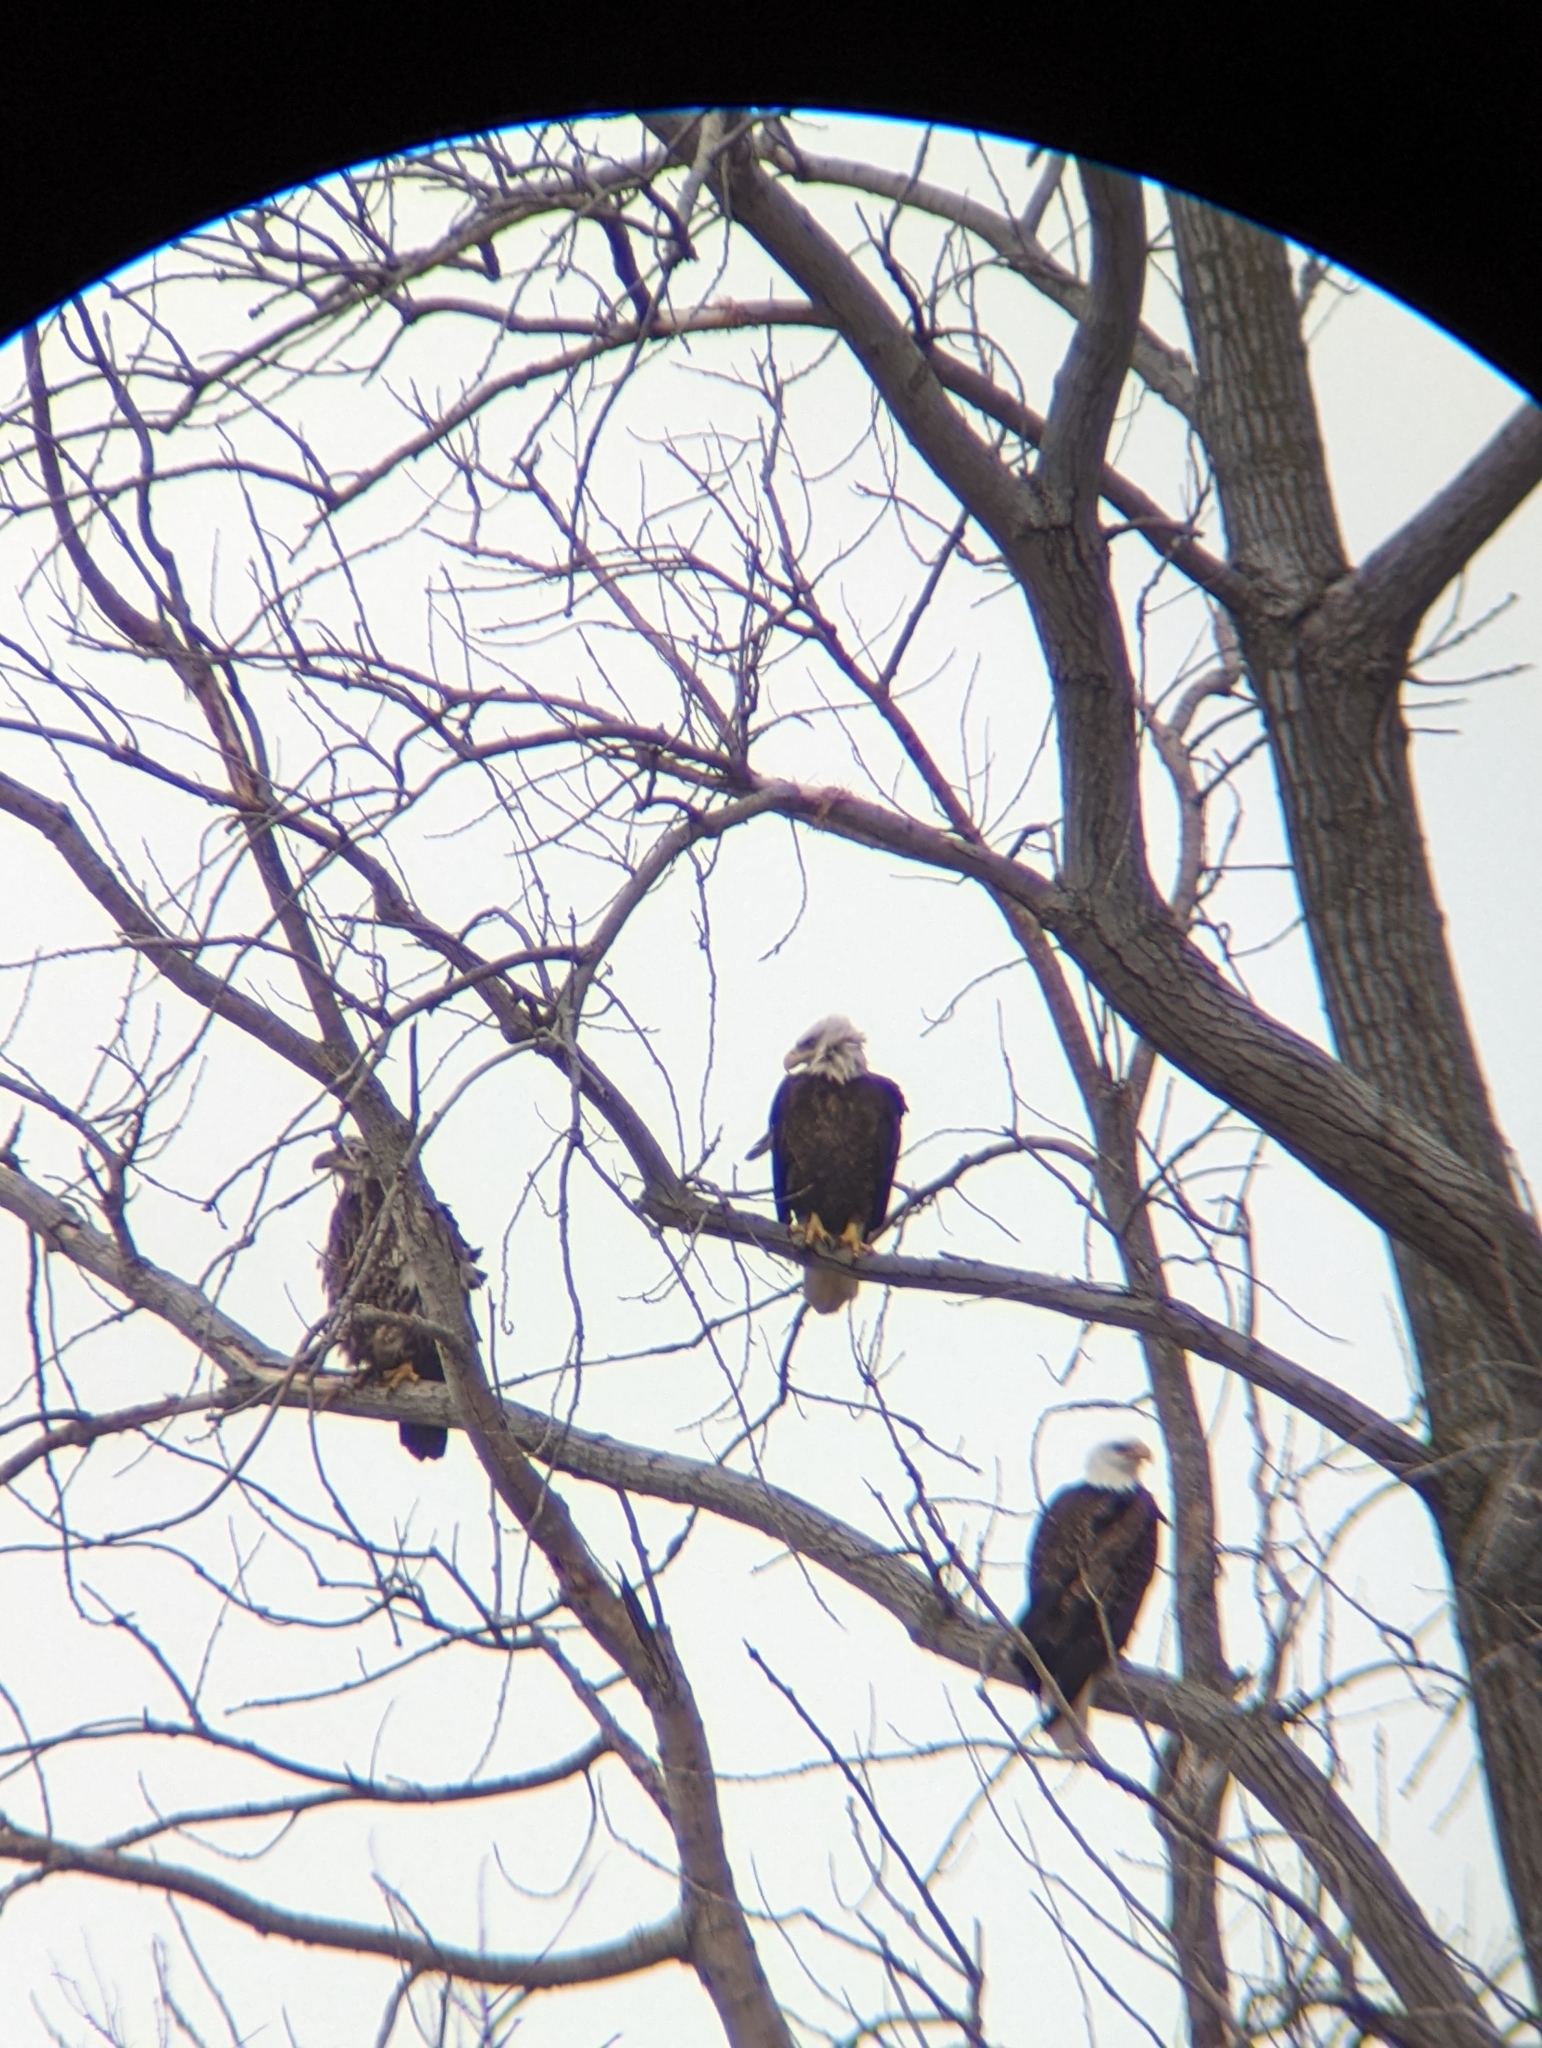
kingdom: Animalia
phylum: Chordata
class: Aves
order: Accipitriformes
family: Accipitridae
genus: Haliaeetus
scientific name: Haliaeetus leucocephalus
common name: Bald eagle
